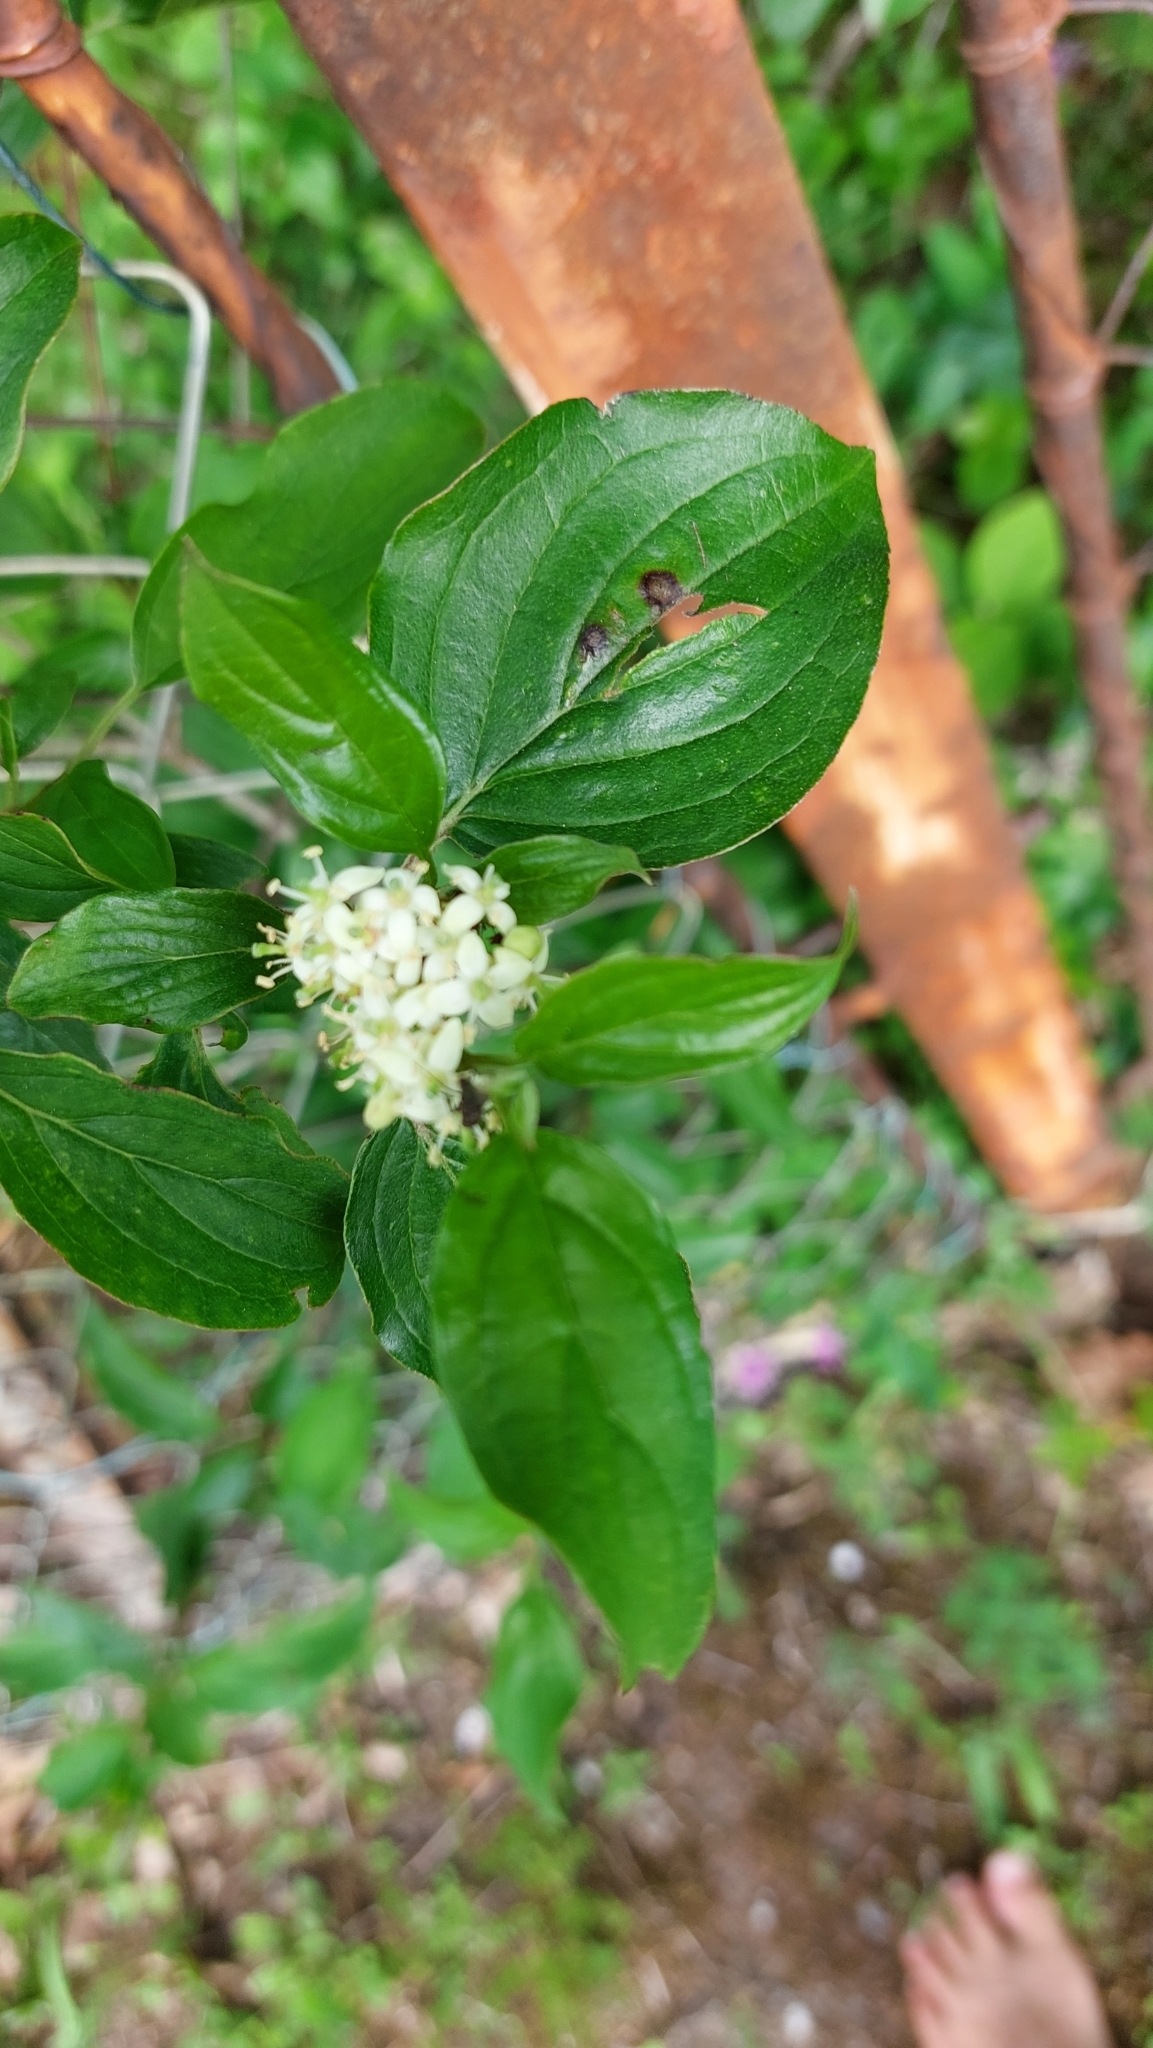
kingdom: Plantae
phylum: Tracheophyta
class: Magnoliopsida
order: Cornales
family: Cornaceae
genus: Cornus
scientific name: Cornus sanguinea
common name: Dogwood
